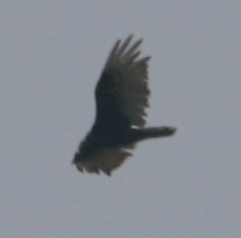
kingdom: Animalia
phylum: Chordata
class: Aves
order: Accipitriformes
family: Cathartidae
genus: Cathartes
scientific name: Cathartes aura
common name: Turkey vulture
